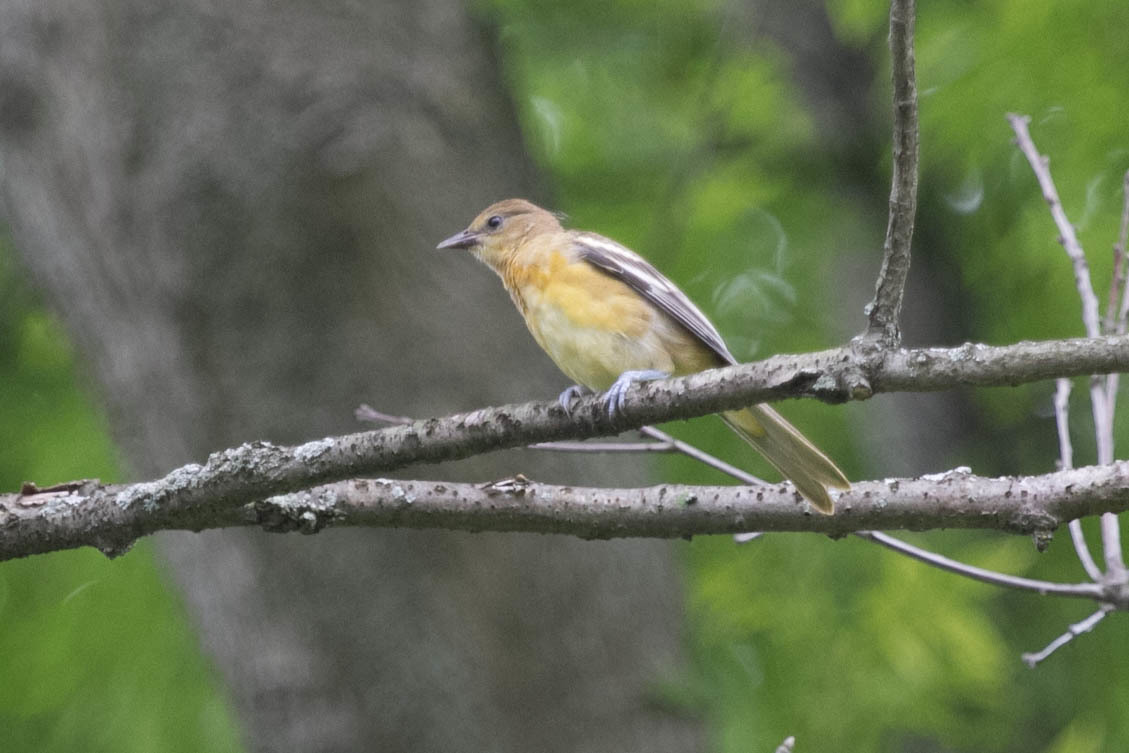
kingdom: Animalia
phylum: Chordata
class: Aves
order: Passeriformes
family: Icteridae
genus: Icterus
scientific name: Icterus galbula
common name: Baltimore oriole
